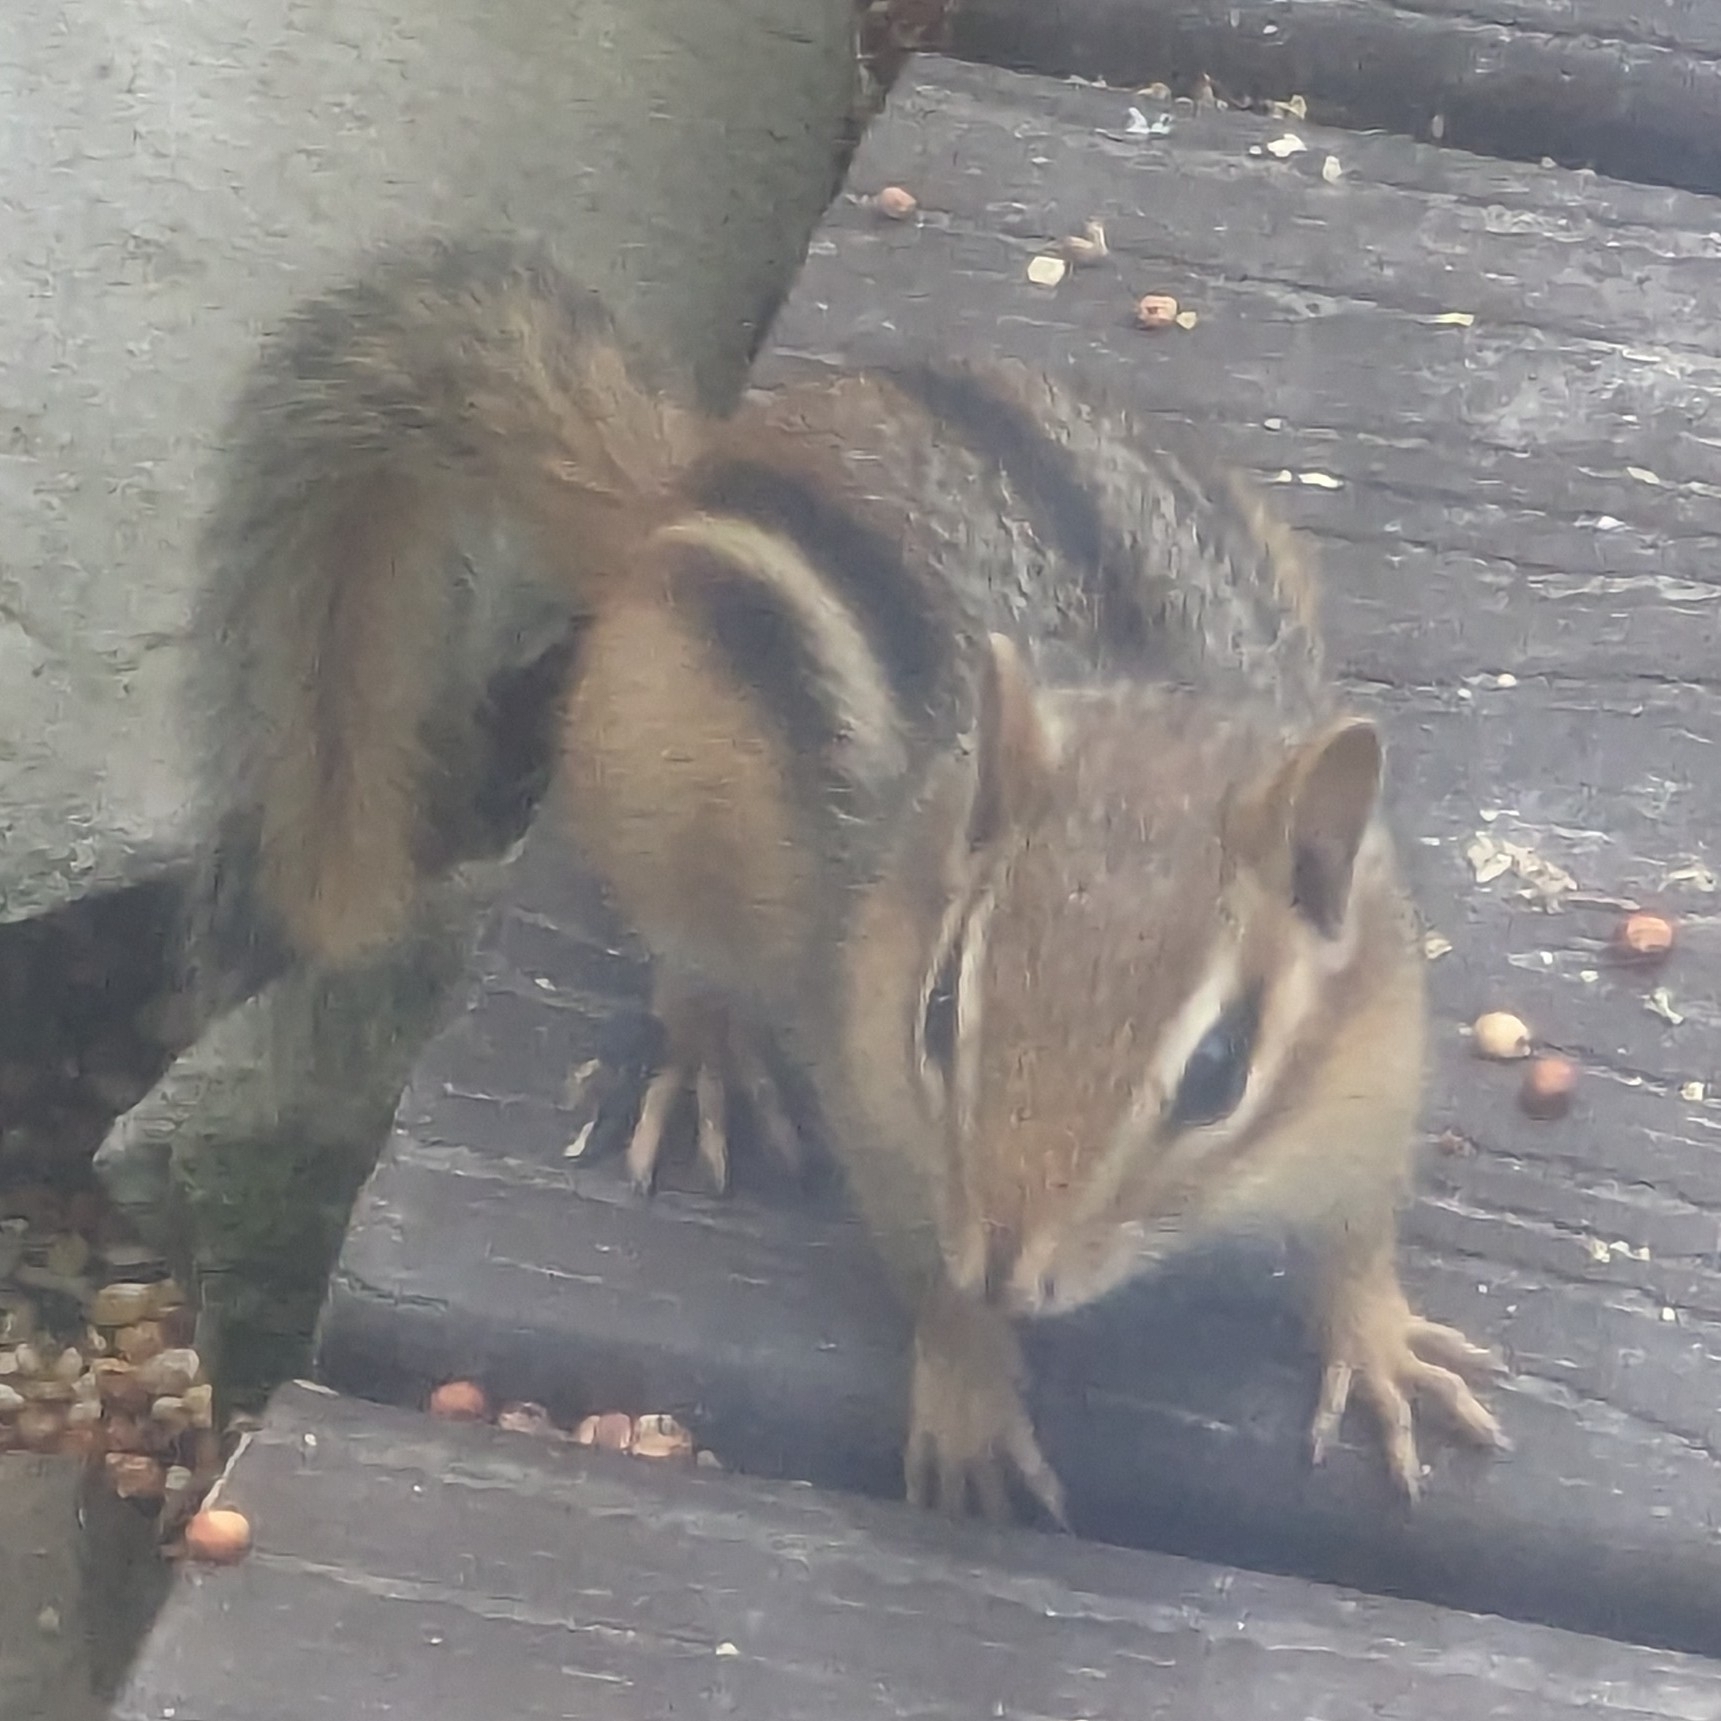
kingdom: Animalia
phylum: Chordata
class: Mammalia
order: Rodentia
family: Sciuridae
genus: Tamias
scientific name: Tamias striatus
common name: Eastern chipmunk
